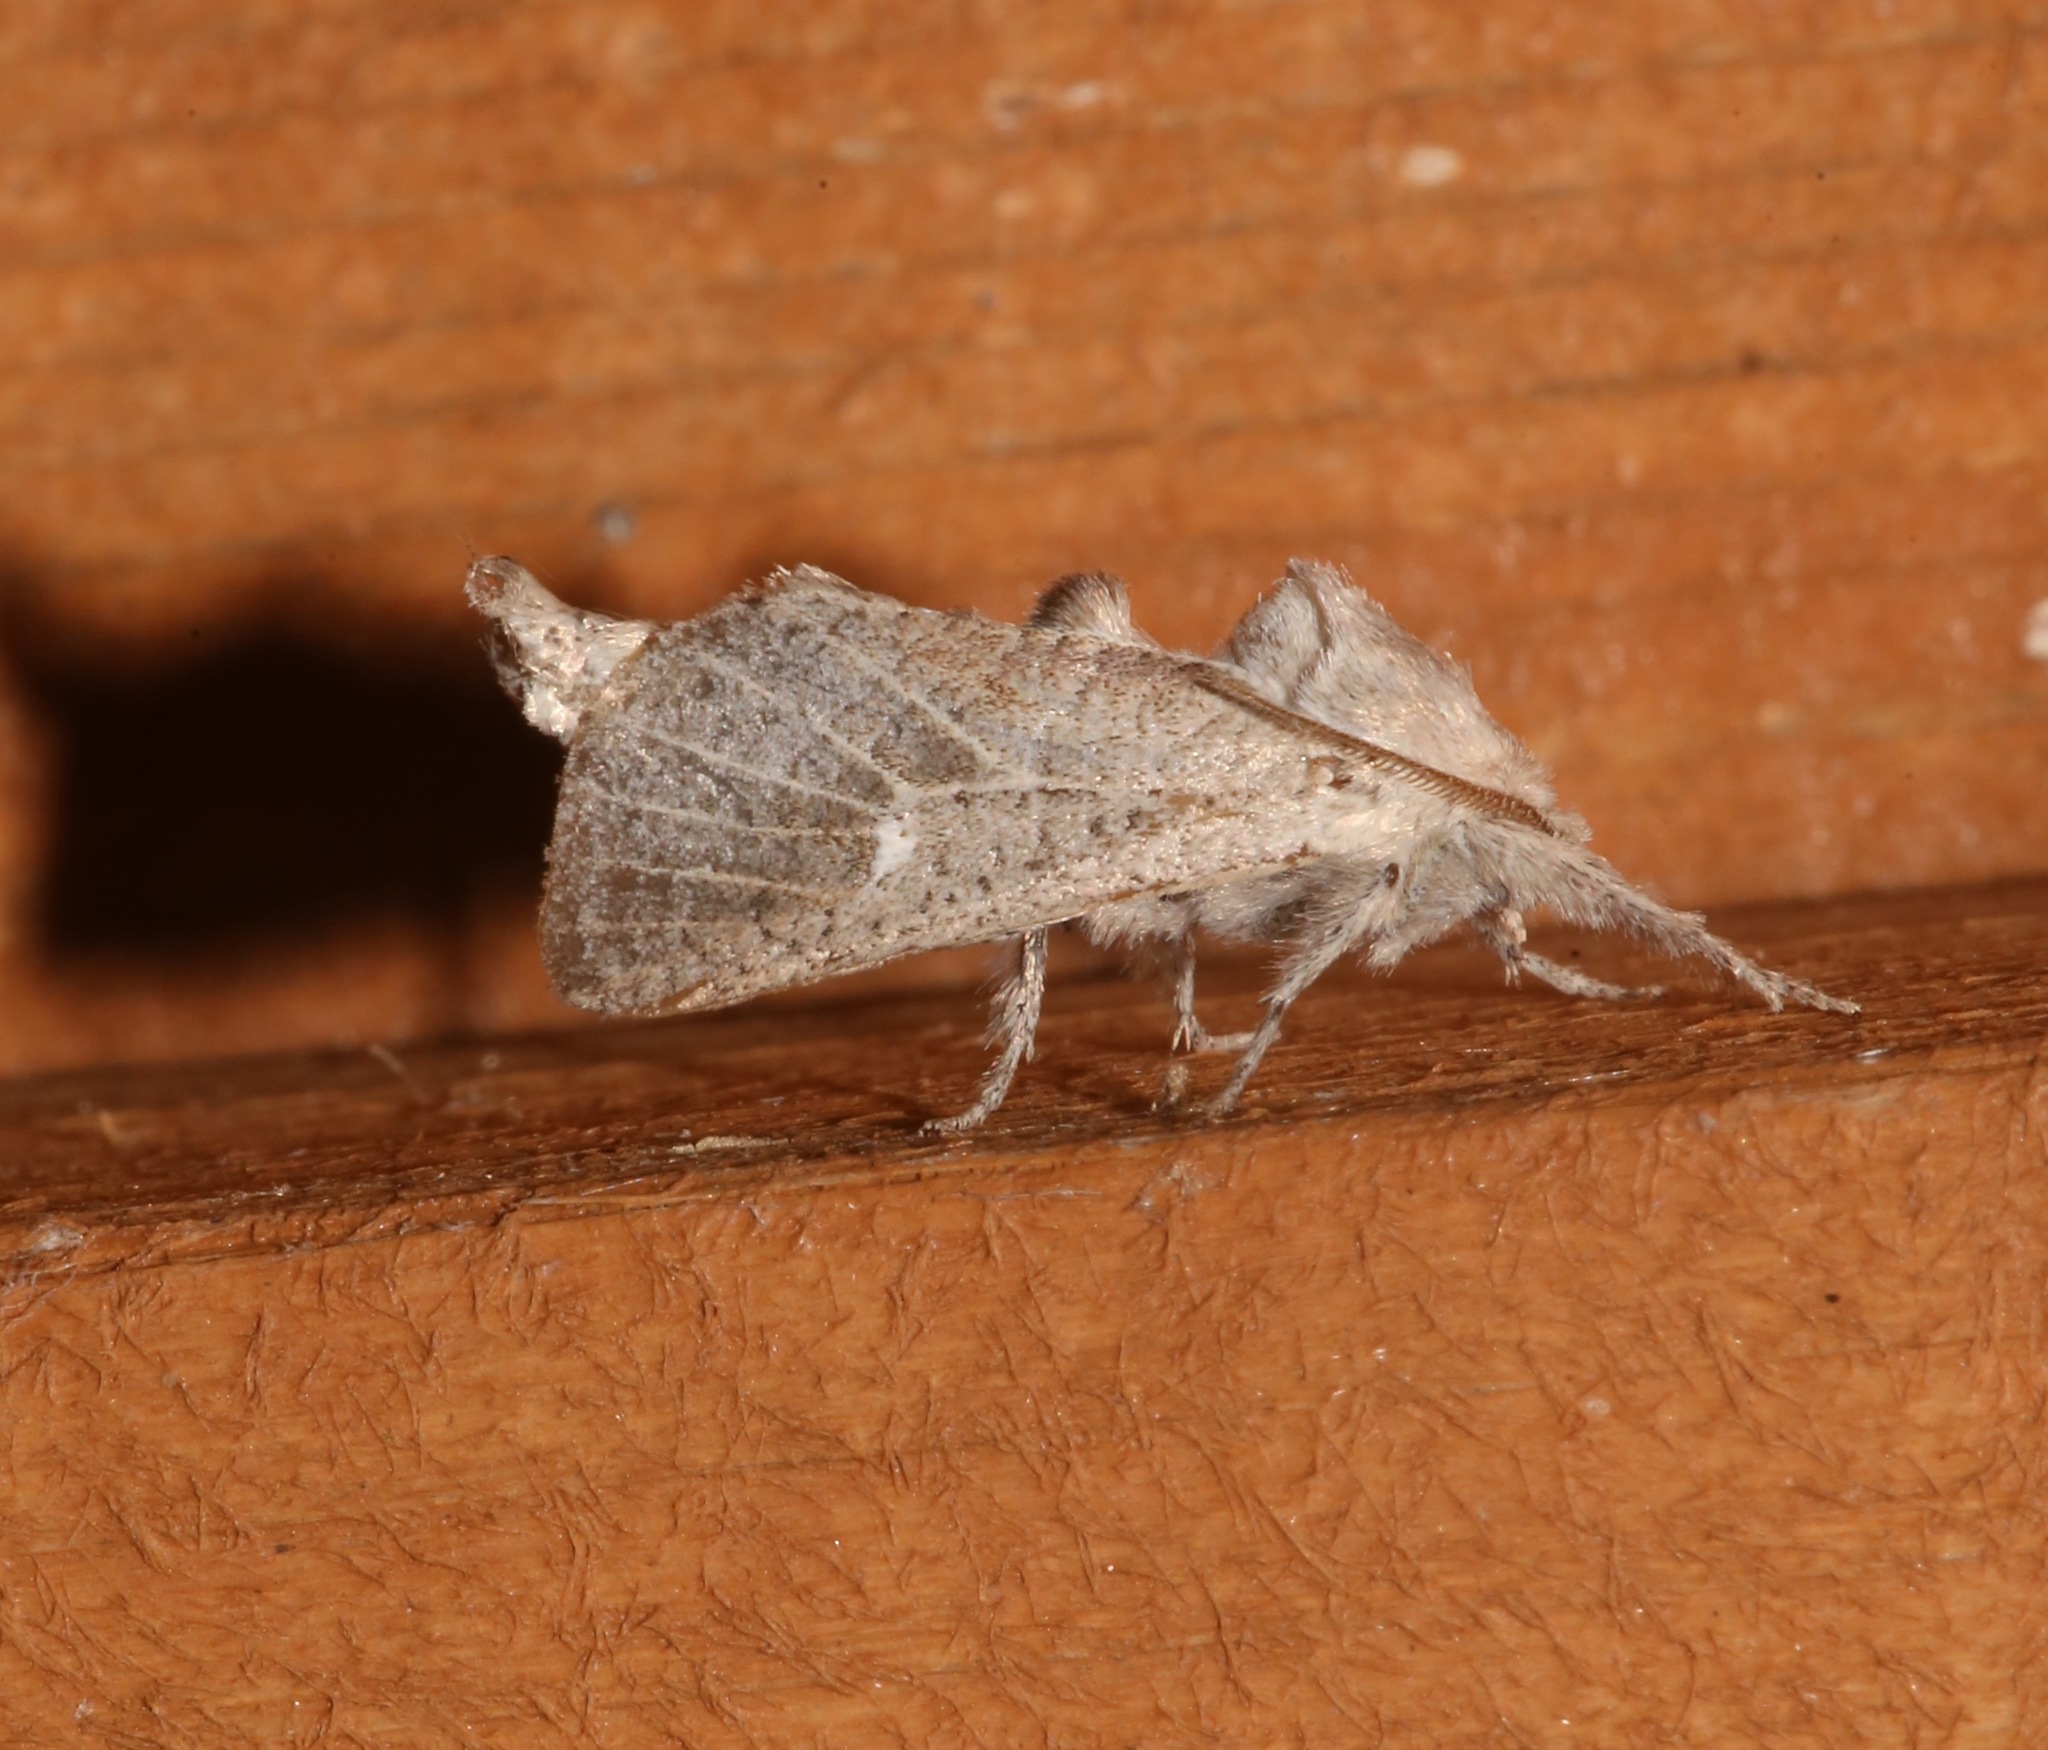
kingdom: Animalia
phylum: Arthropoda
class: Insecta
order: Lepidoptera
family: Cossidae
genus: Givira
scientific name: Givira anna
